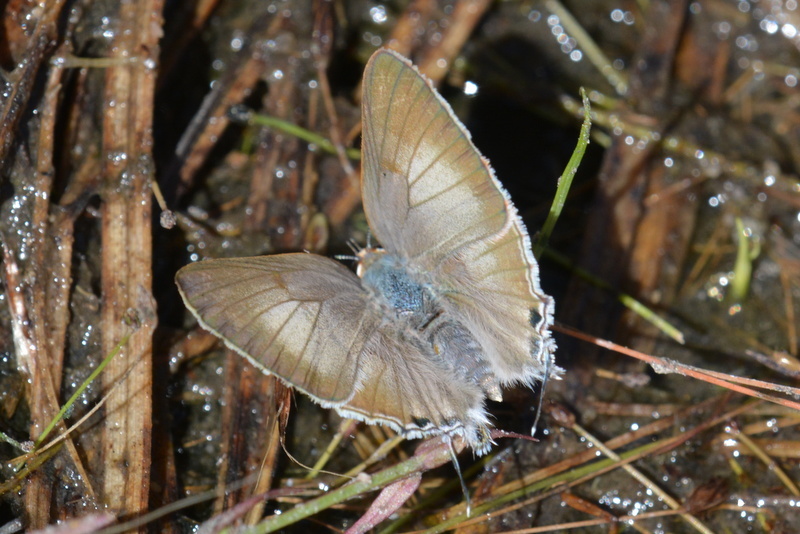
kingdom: Animalia
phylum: Arthropoda
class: Insecta
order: Lepidoptera
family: Lycaenidae
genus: Deudorix
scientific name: Deudorix antalus
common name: Brown playboy
